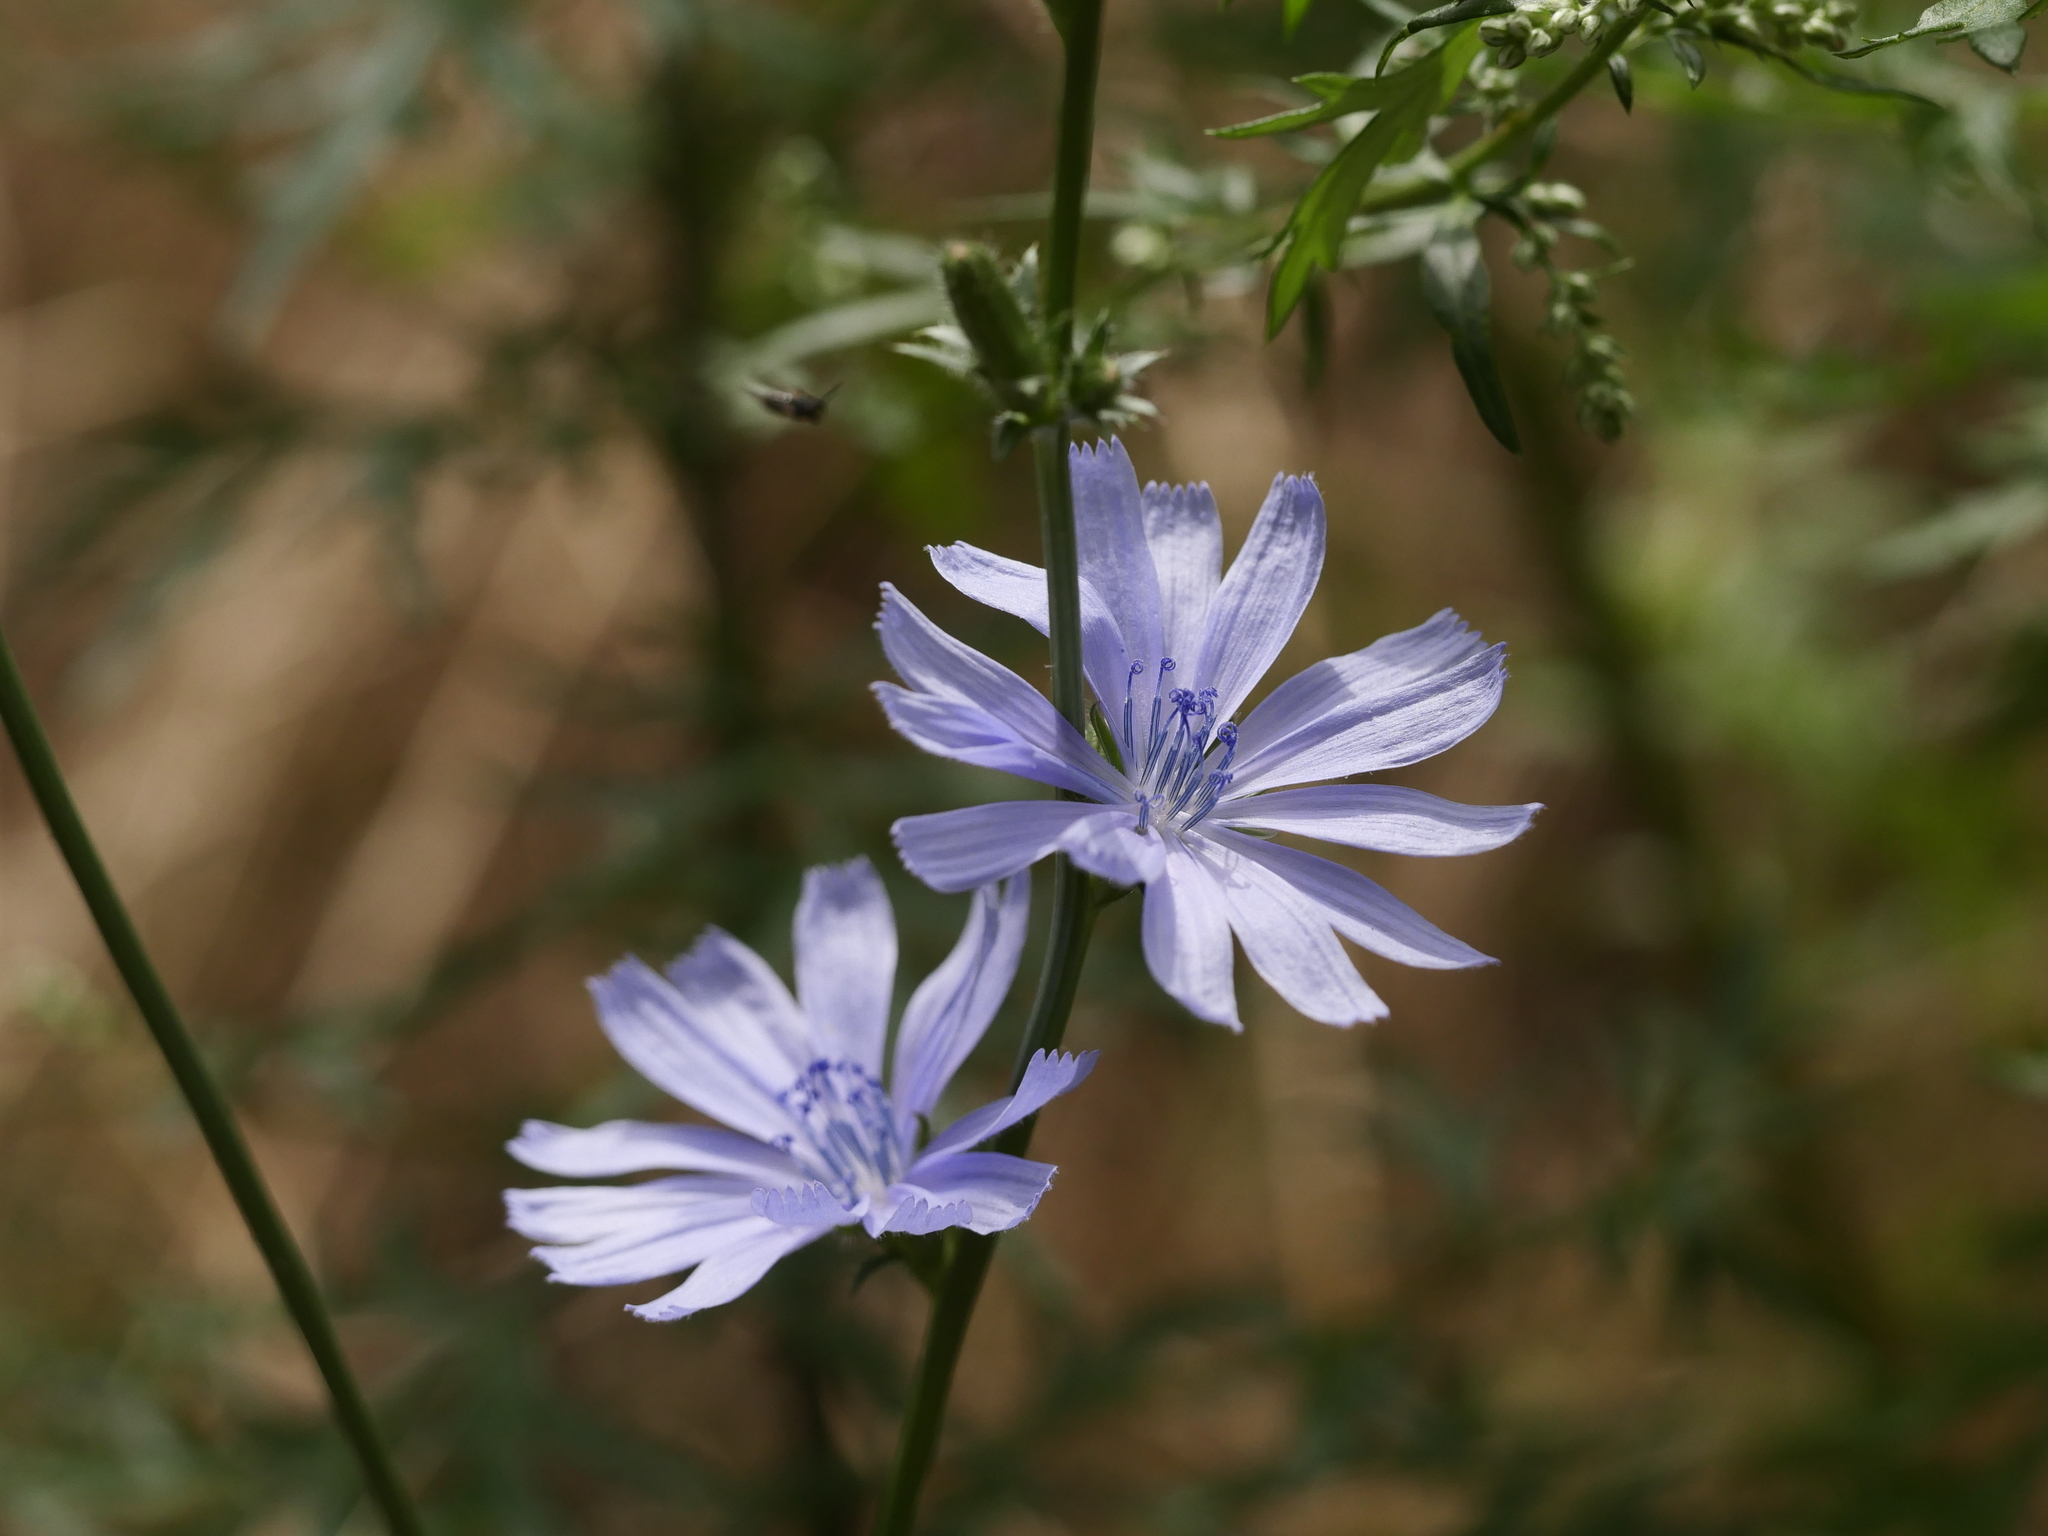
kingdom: Plantae
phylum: Tracheophyta
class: Magnoliopsida
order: Asterales
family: Asteraceae
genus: Cichorium
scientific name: Cichorium intybus
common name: Chicory
